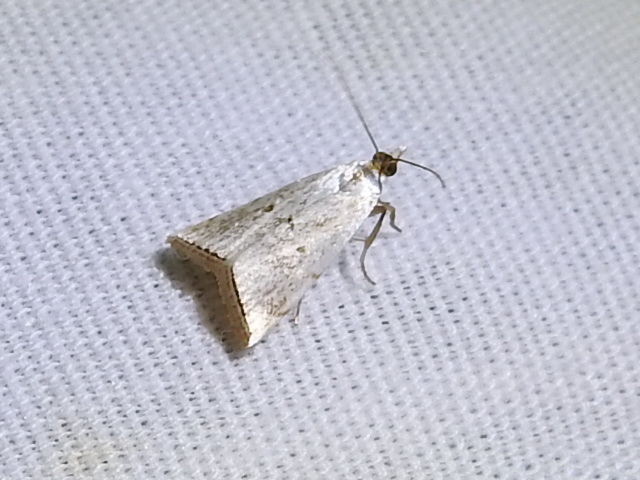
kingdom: Animalia
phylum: Arthropoda
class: Insecta
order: Lepidoptera
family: Crambidae
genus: Argyria
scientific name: Argyria pusillalis
